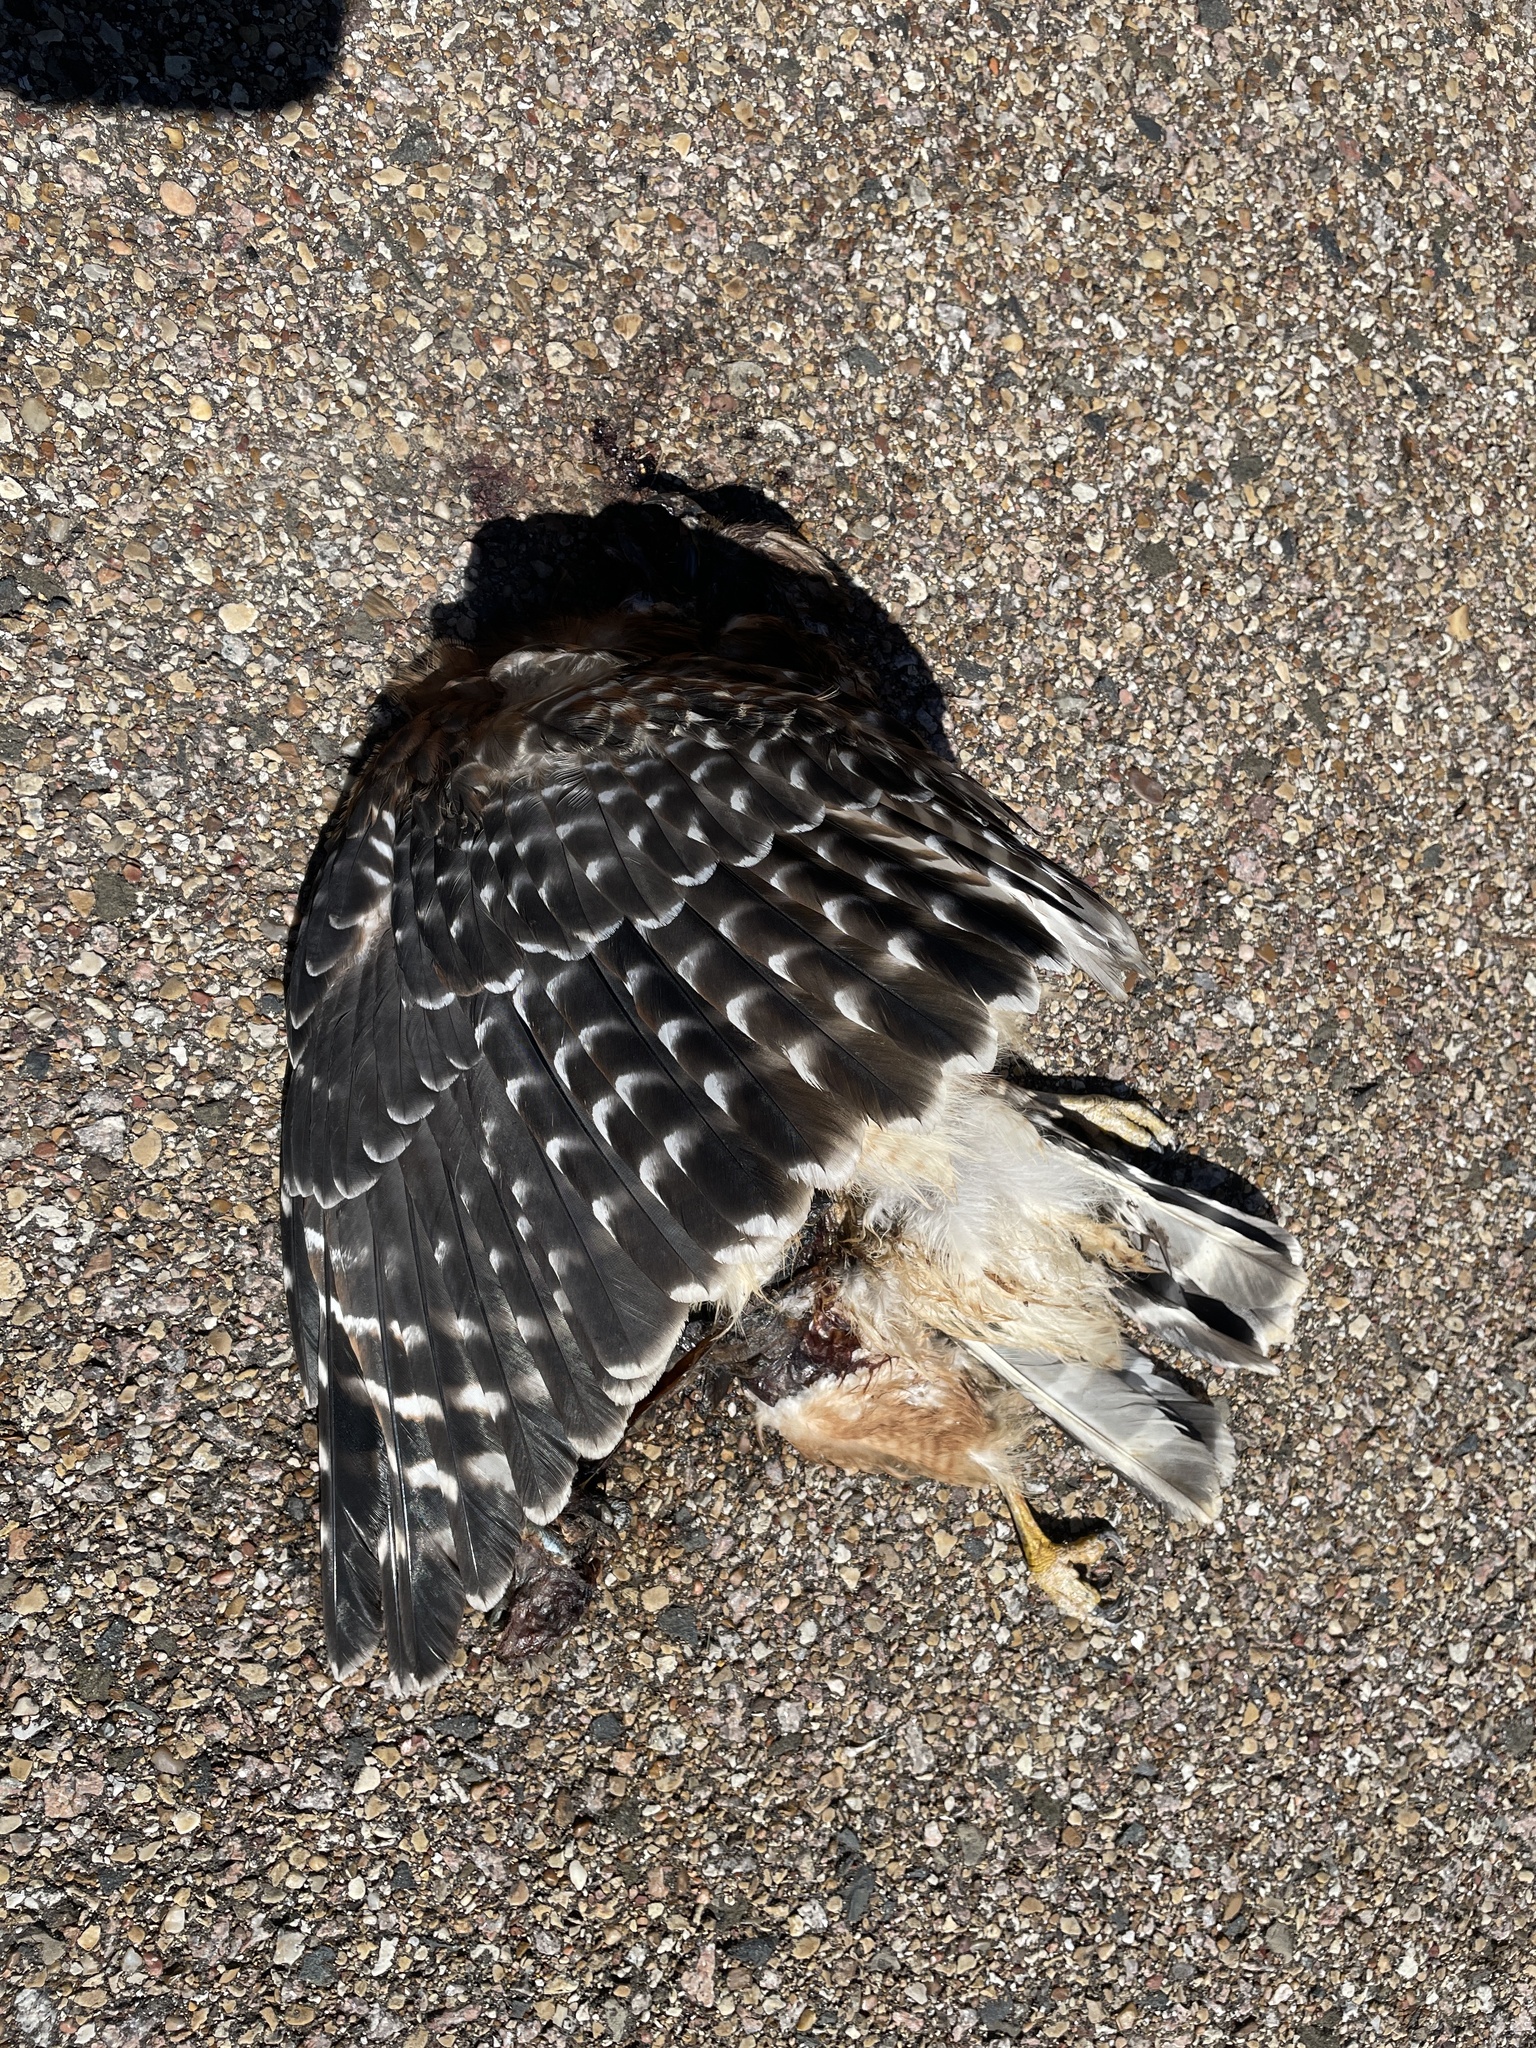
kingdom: Animalia
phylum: Chordata
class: Aves
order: Accipitriformes
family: Accipitridae
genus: Buteo
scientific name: Buteo lineatus
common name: Red-shouldered hawk
